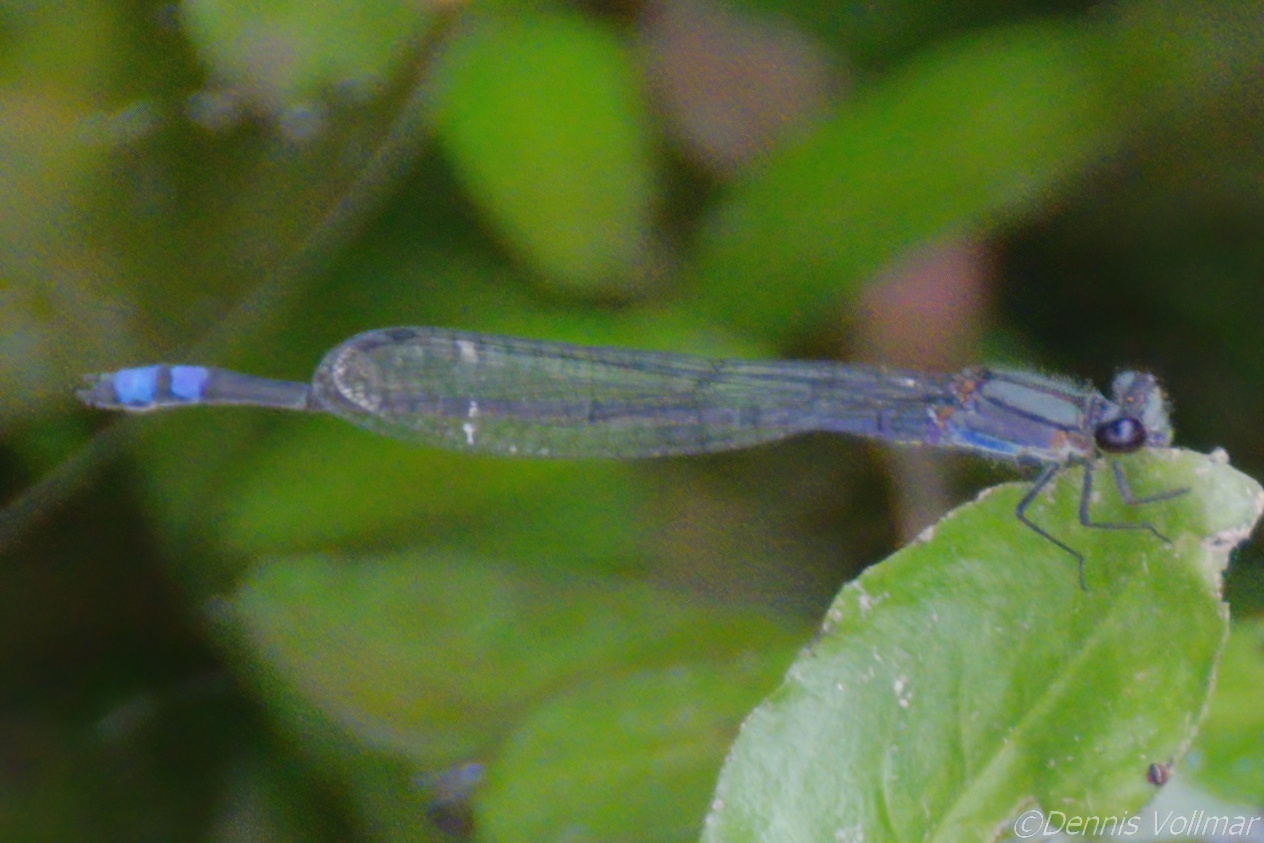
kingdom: Animalia
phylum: Arthropoda
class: Insecta
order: Odonata
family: Coenagrionidae
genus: Enallagma
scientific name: Enallagma novaehispaniae
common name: Neotropical bluet
